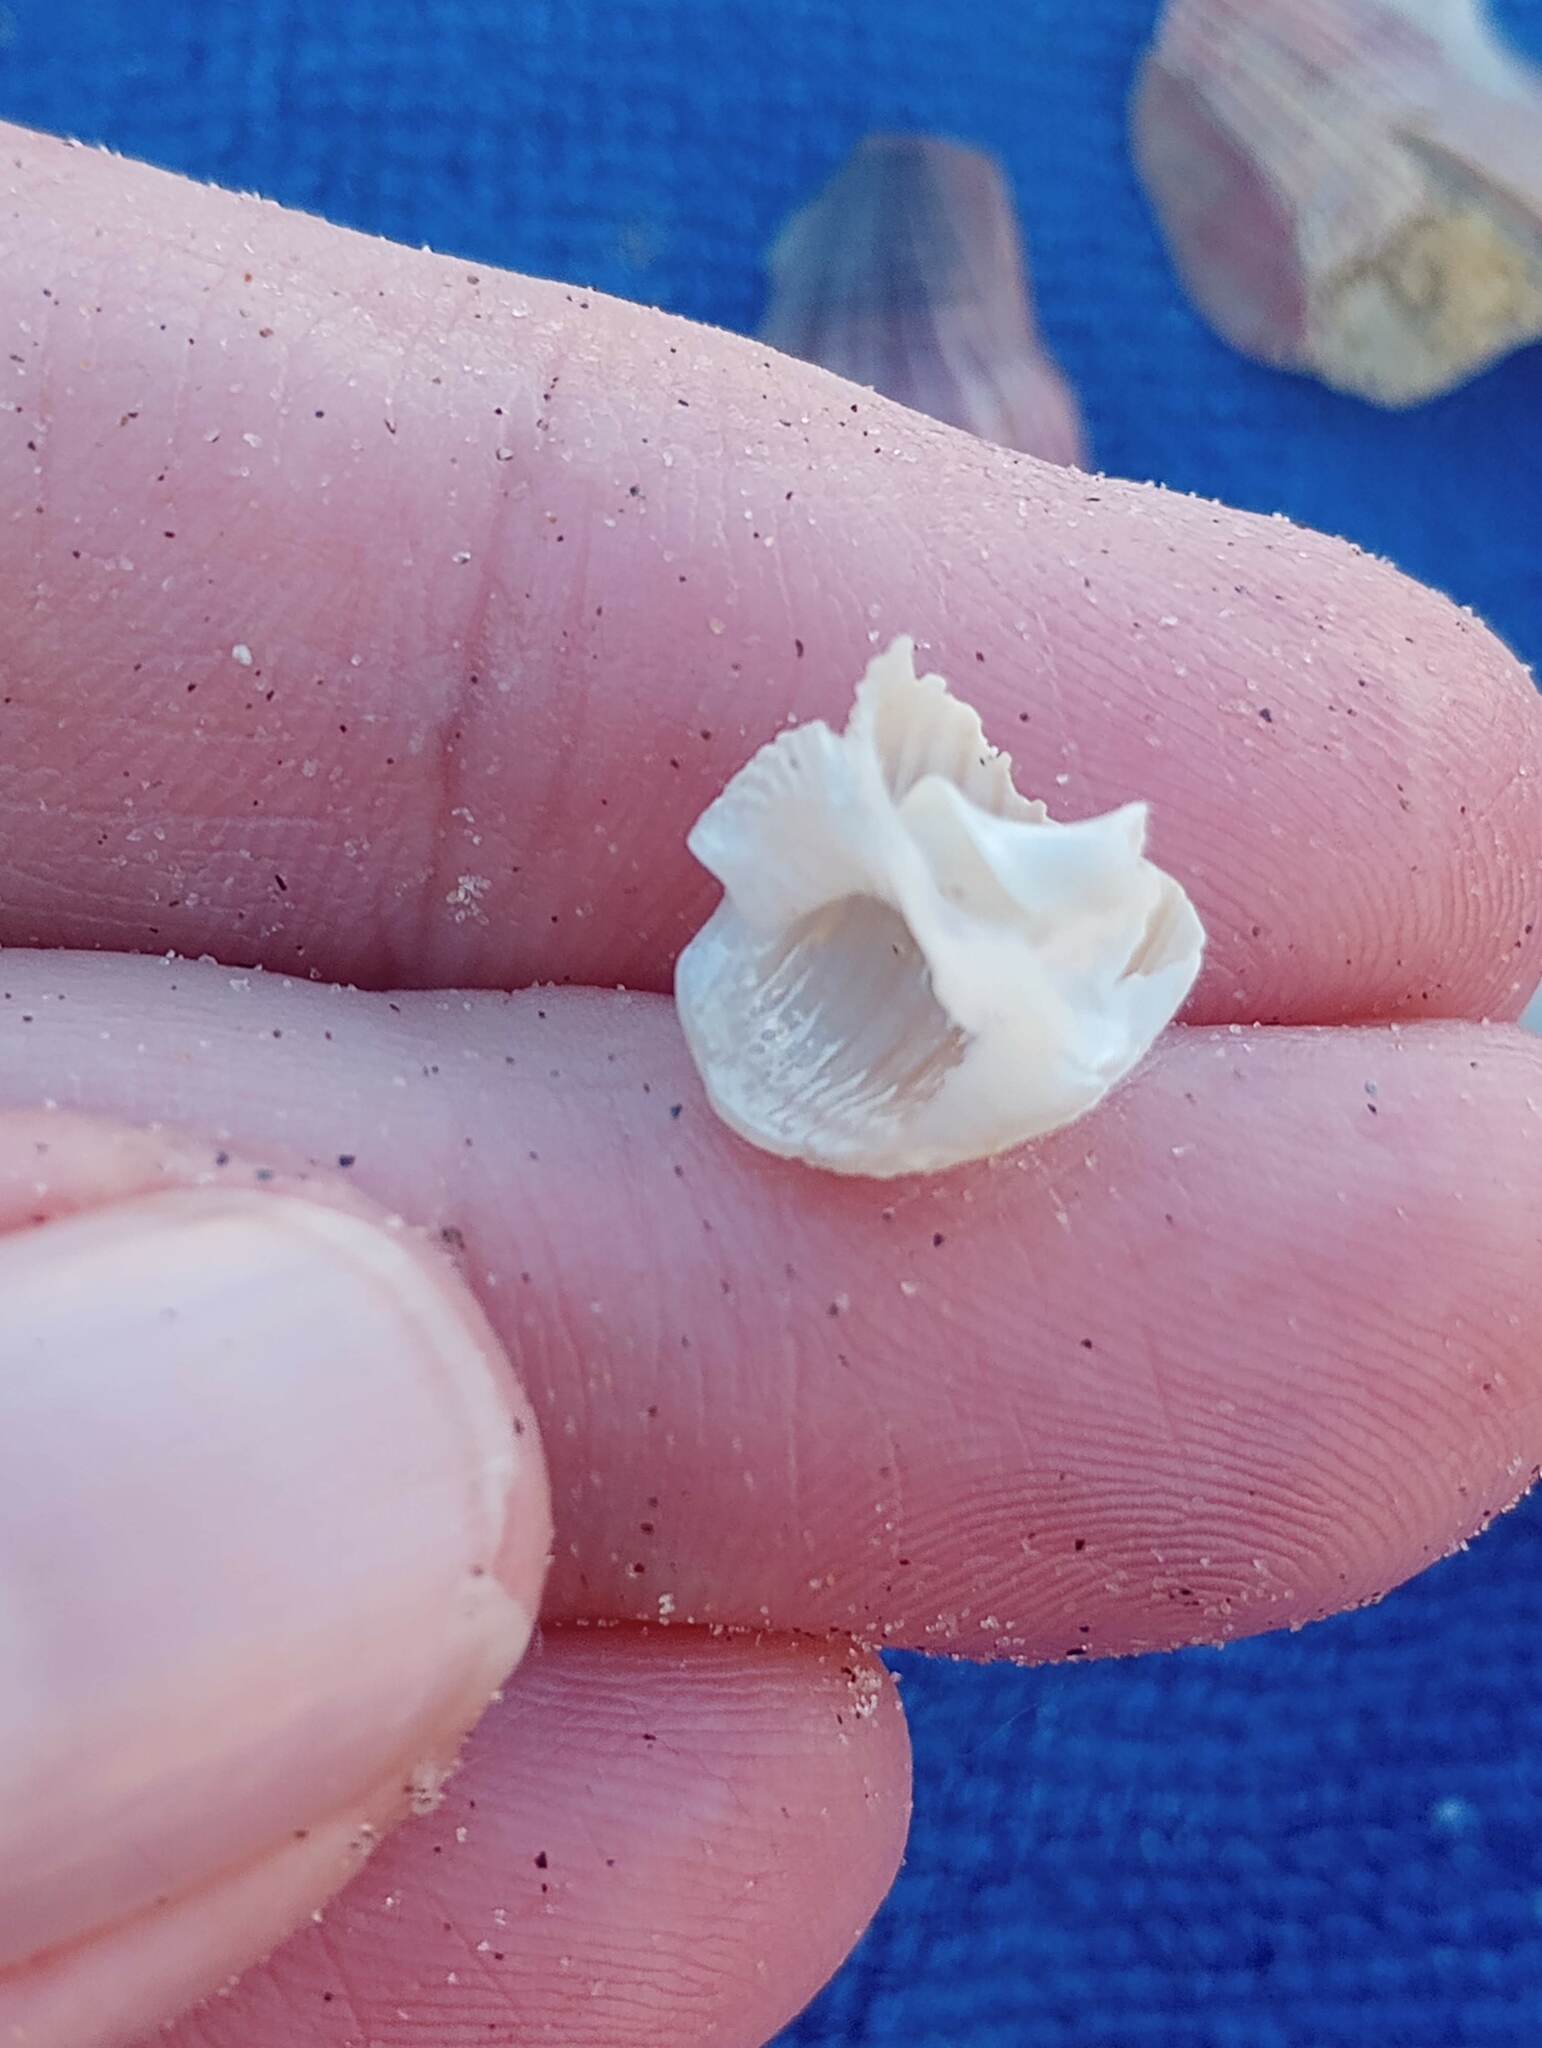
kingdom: Animalia
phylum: Mollusca
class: Gastropoda
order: Neogastropoda
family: Nassariidae
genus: Caesia
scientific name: Caesia perpinguis
